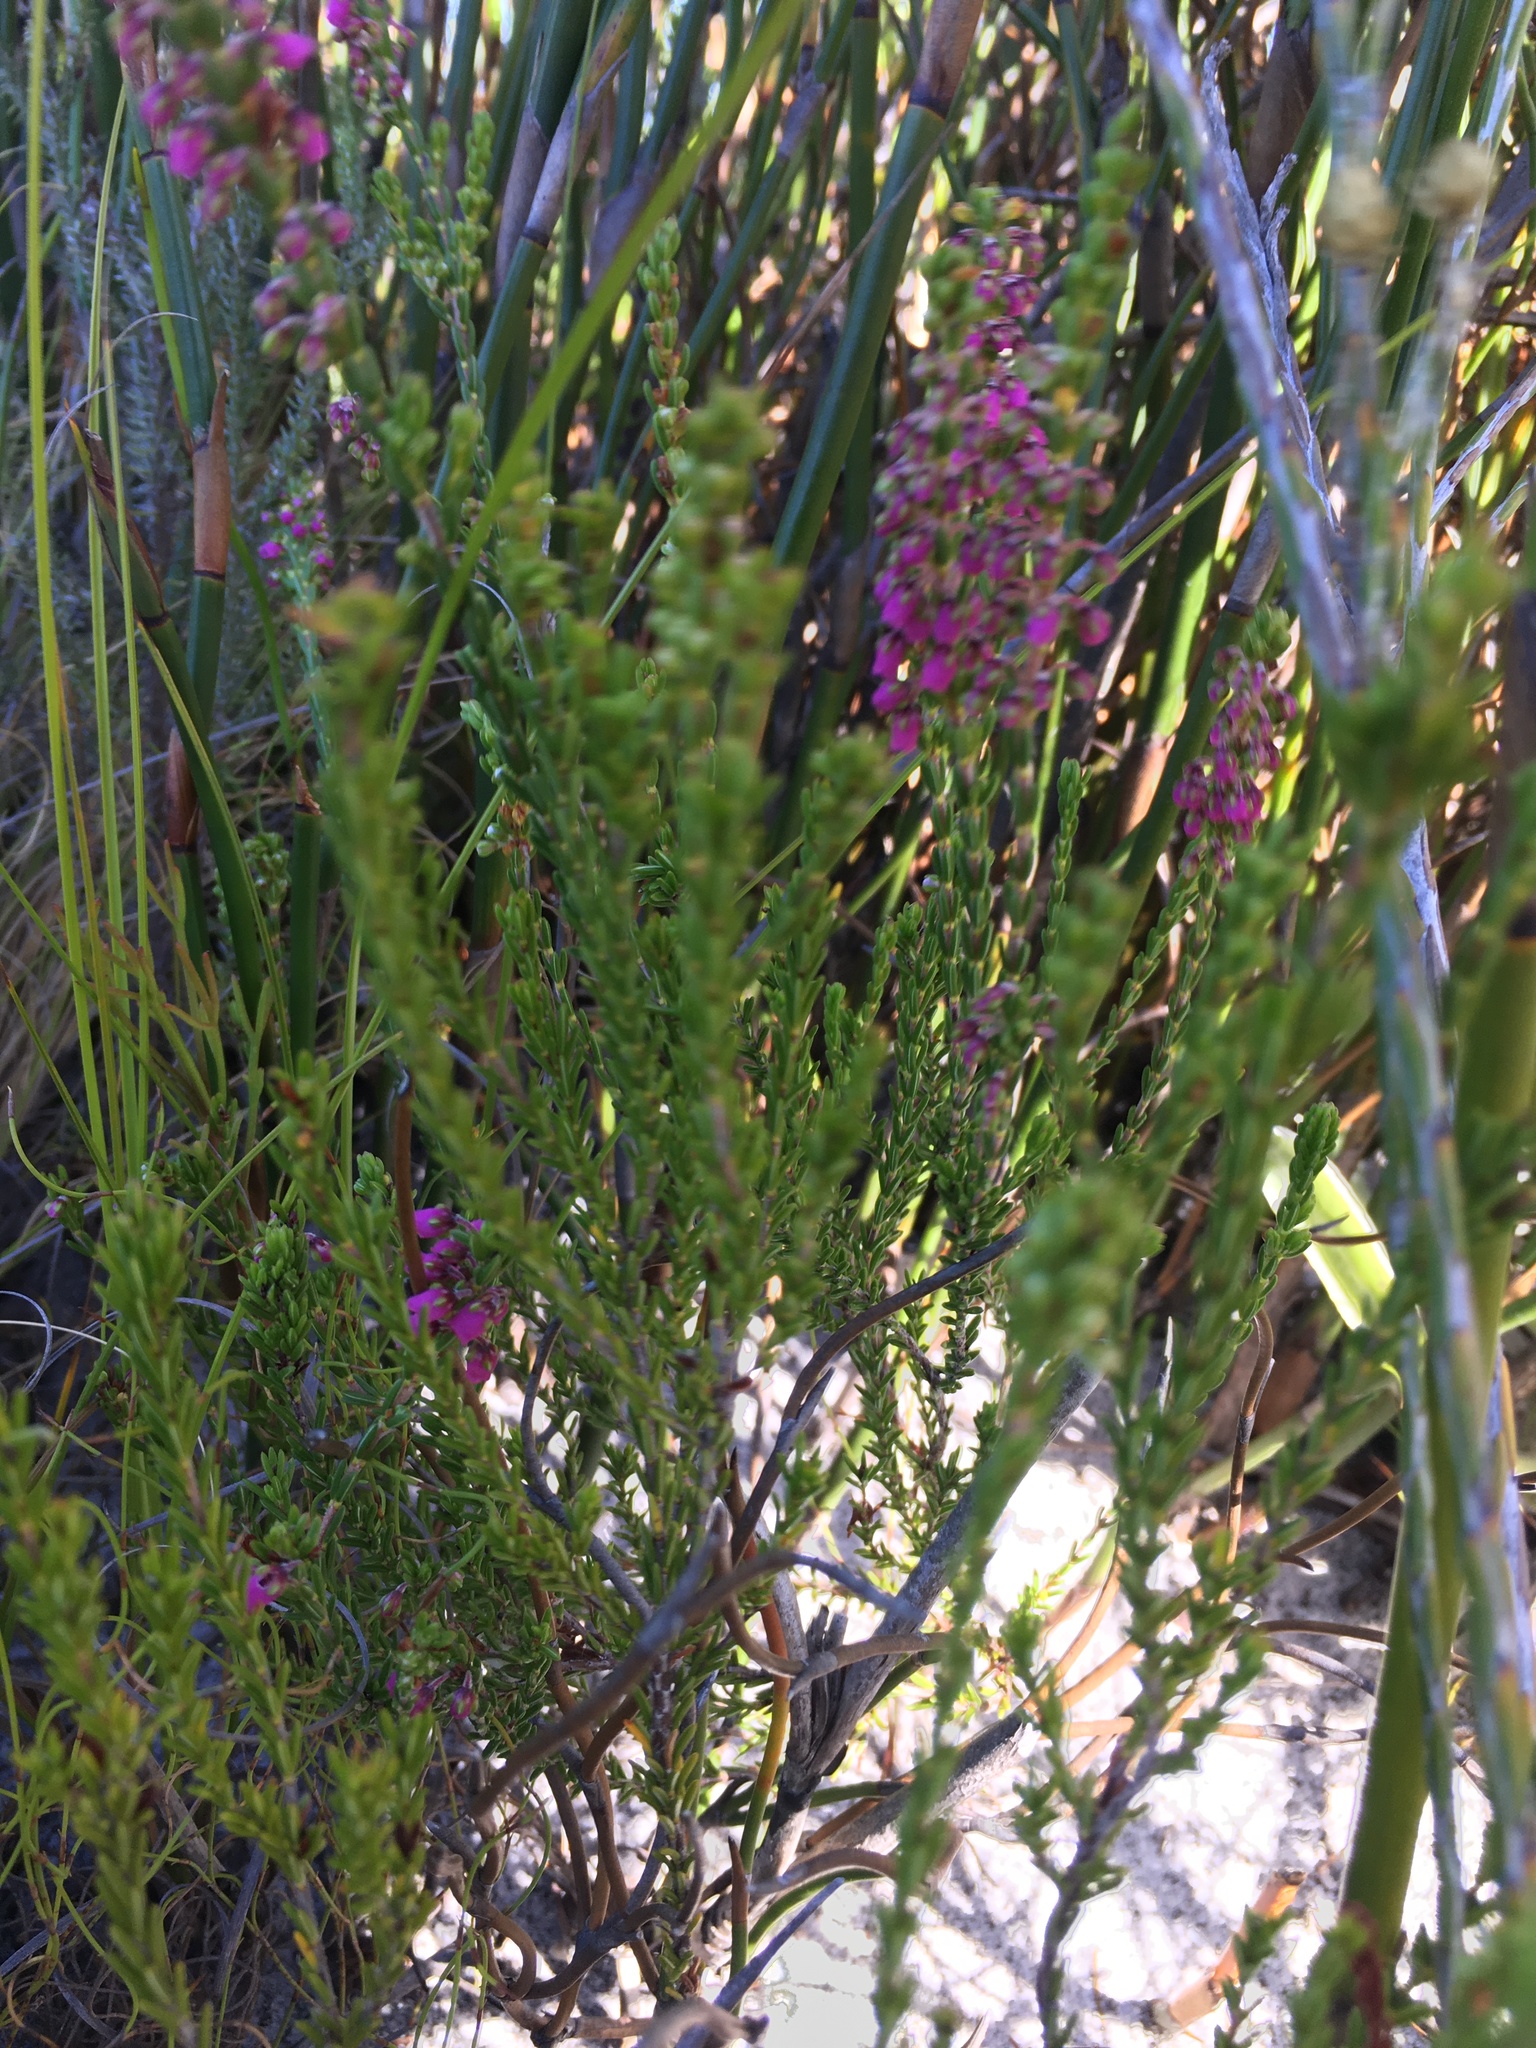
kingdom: Plantae
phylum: Tracheophyta
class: Magnoliopsida
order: Ericales
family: Ericaceae
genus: Erica
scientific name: Erica pulchella
